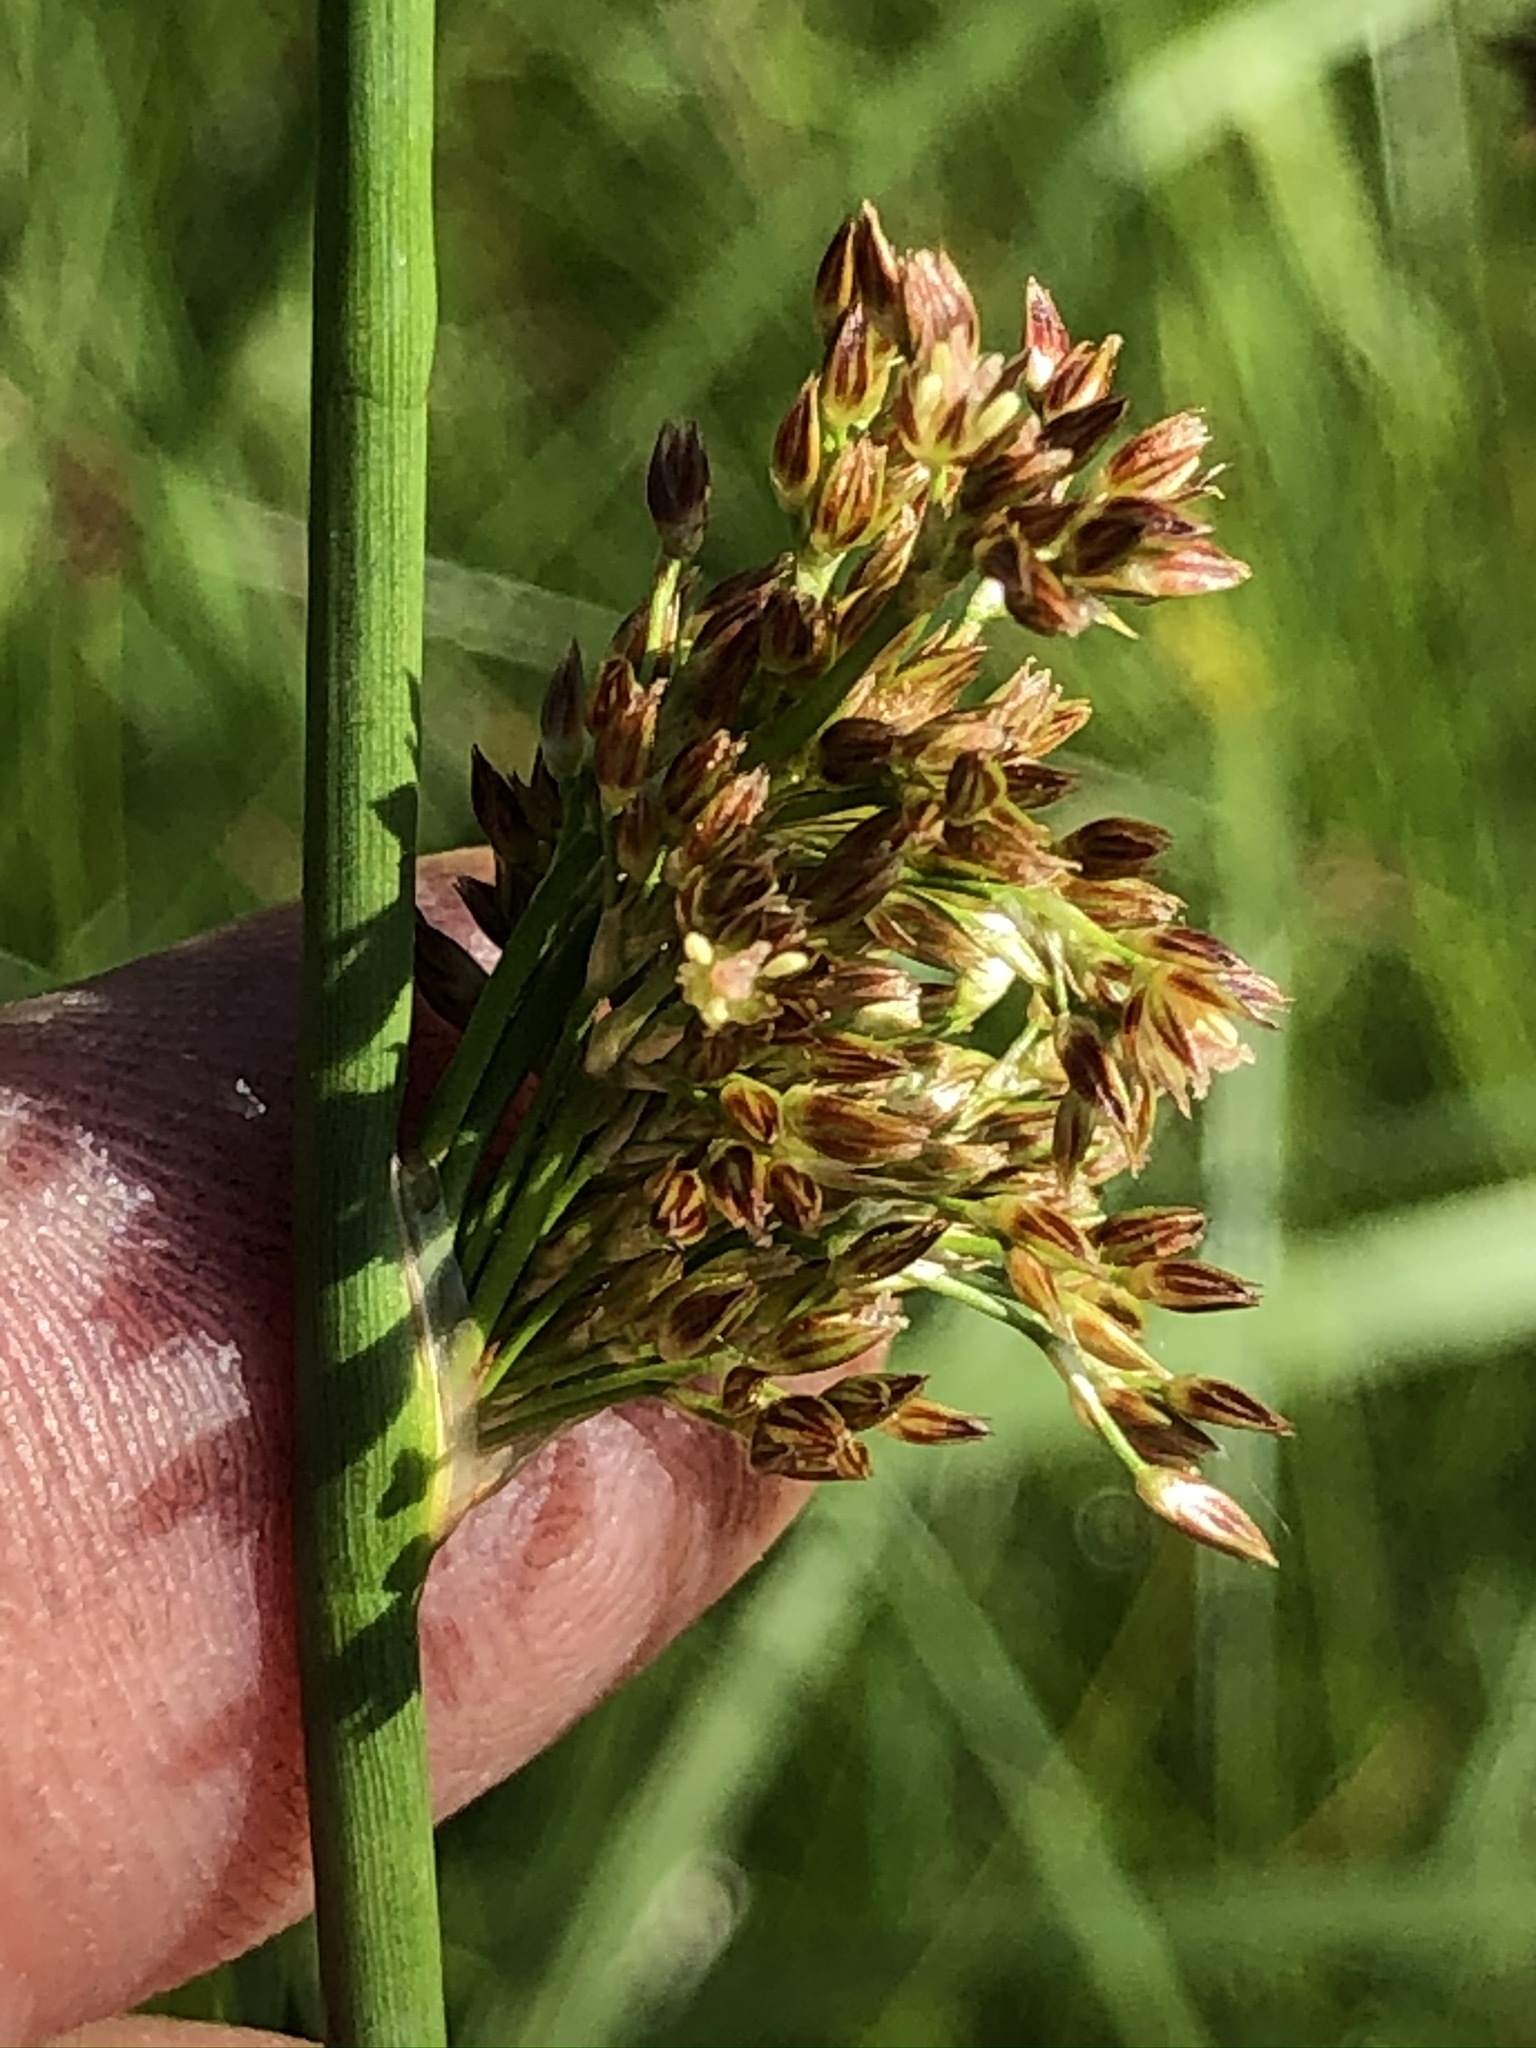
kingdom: Plantae
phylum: Tracheophyta
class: Liliopsida
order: Poales
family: Juncaceae
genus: Juncus
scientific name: Juncus inflexus
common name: Hard rush
